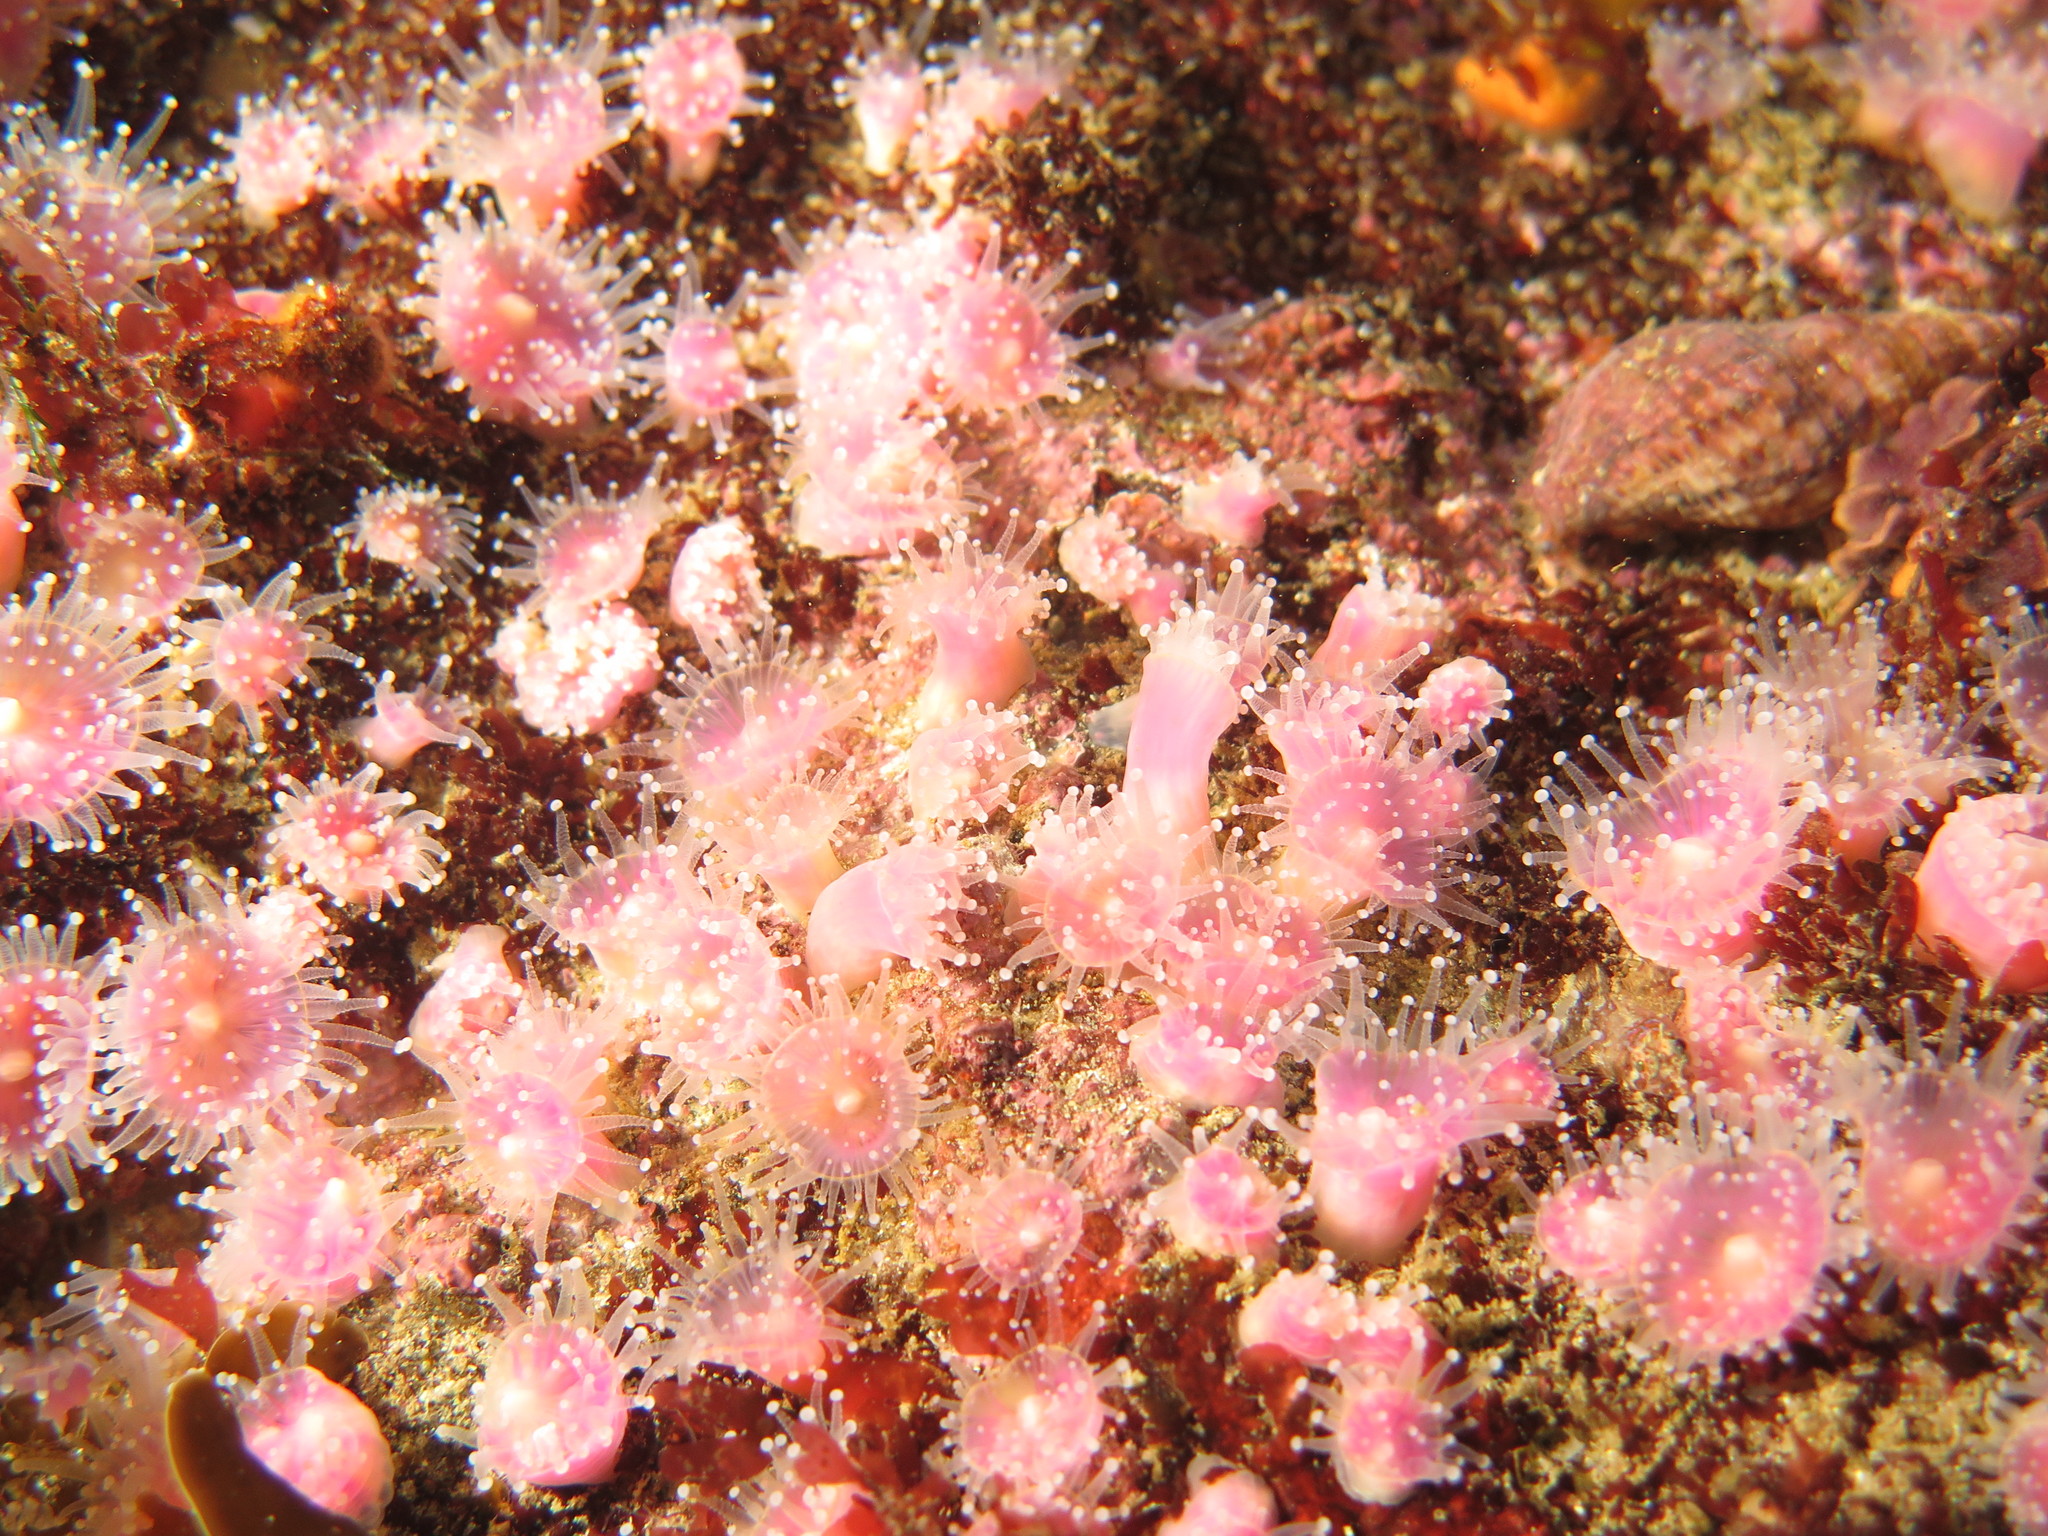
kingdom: Animalia
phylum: Cnidaria
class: Anthozoa
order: Corallimorpharia
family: Corallimorphidae
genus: Corynactis
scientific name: Corynactis annulata
